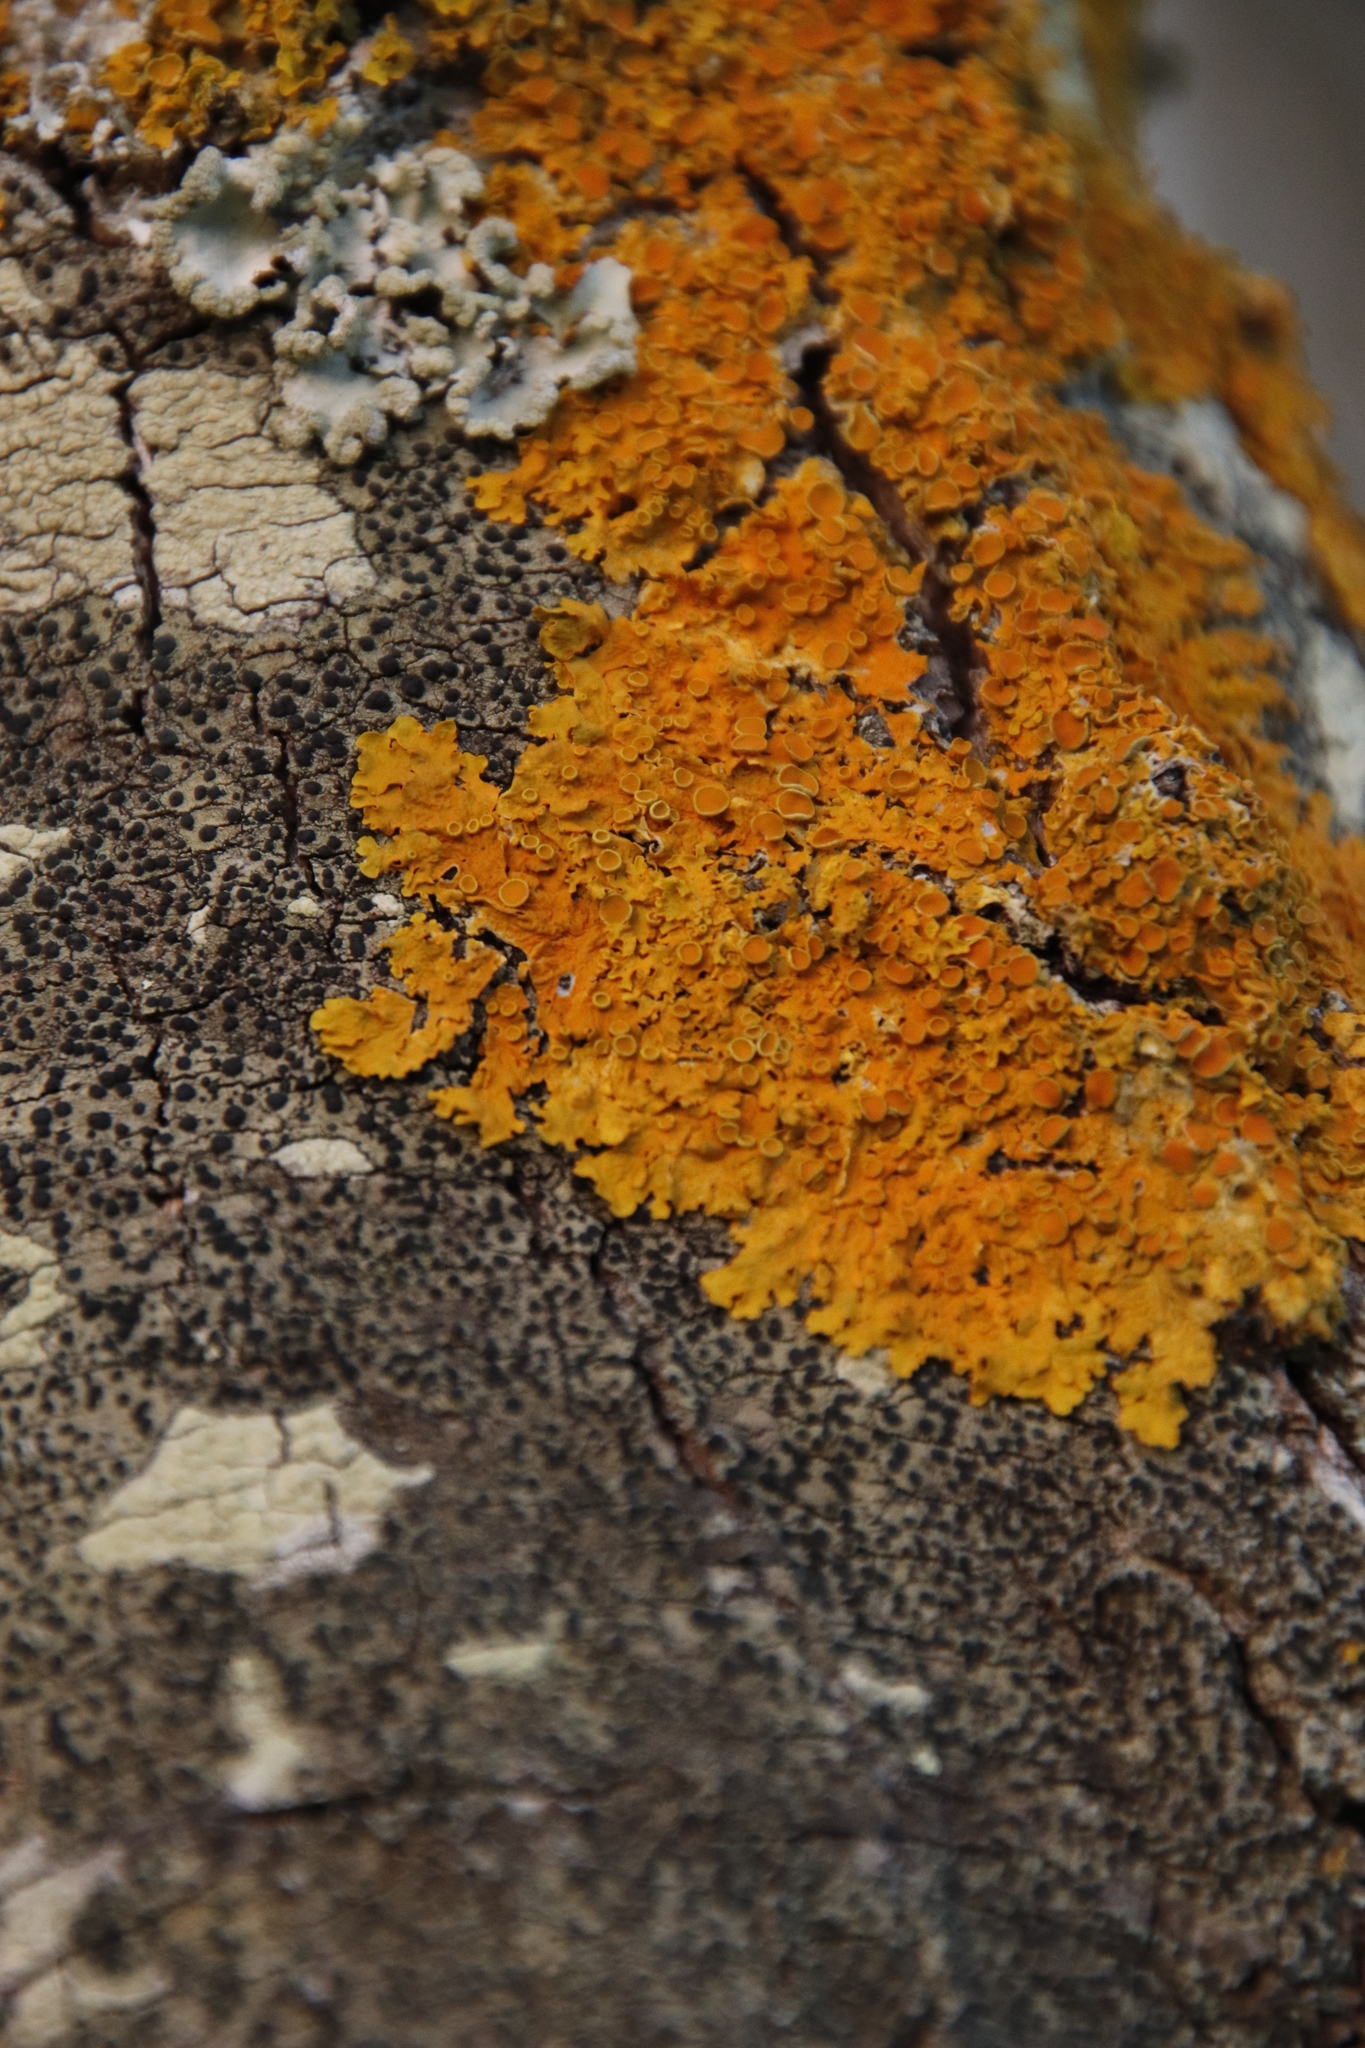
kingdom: Fungi
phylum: Ascomycota
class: Lecanoromycetes
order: Teloschistales
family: Teloschistaceae
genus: Xanthoria
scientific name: Xanthoria parietina
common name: Common orange lichen
